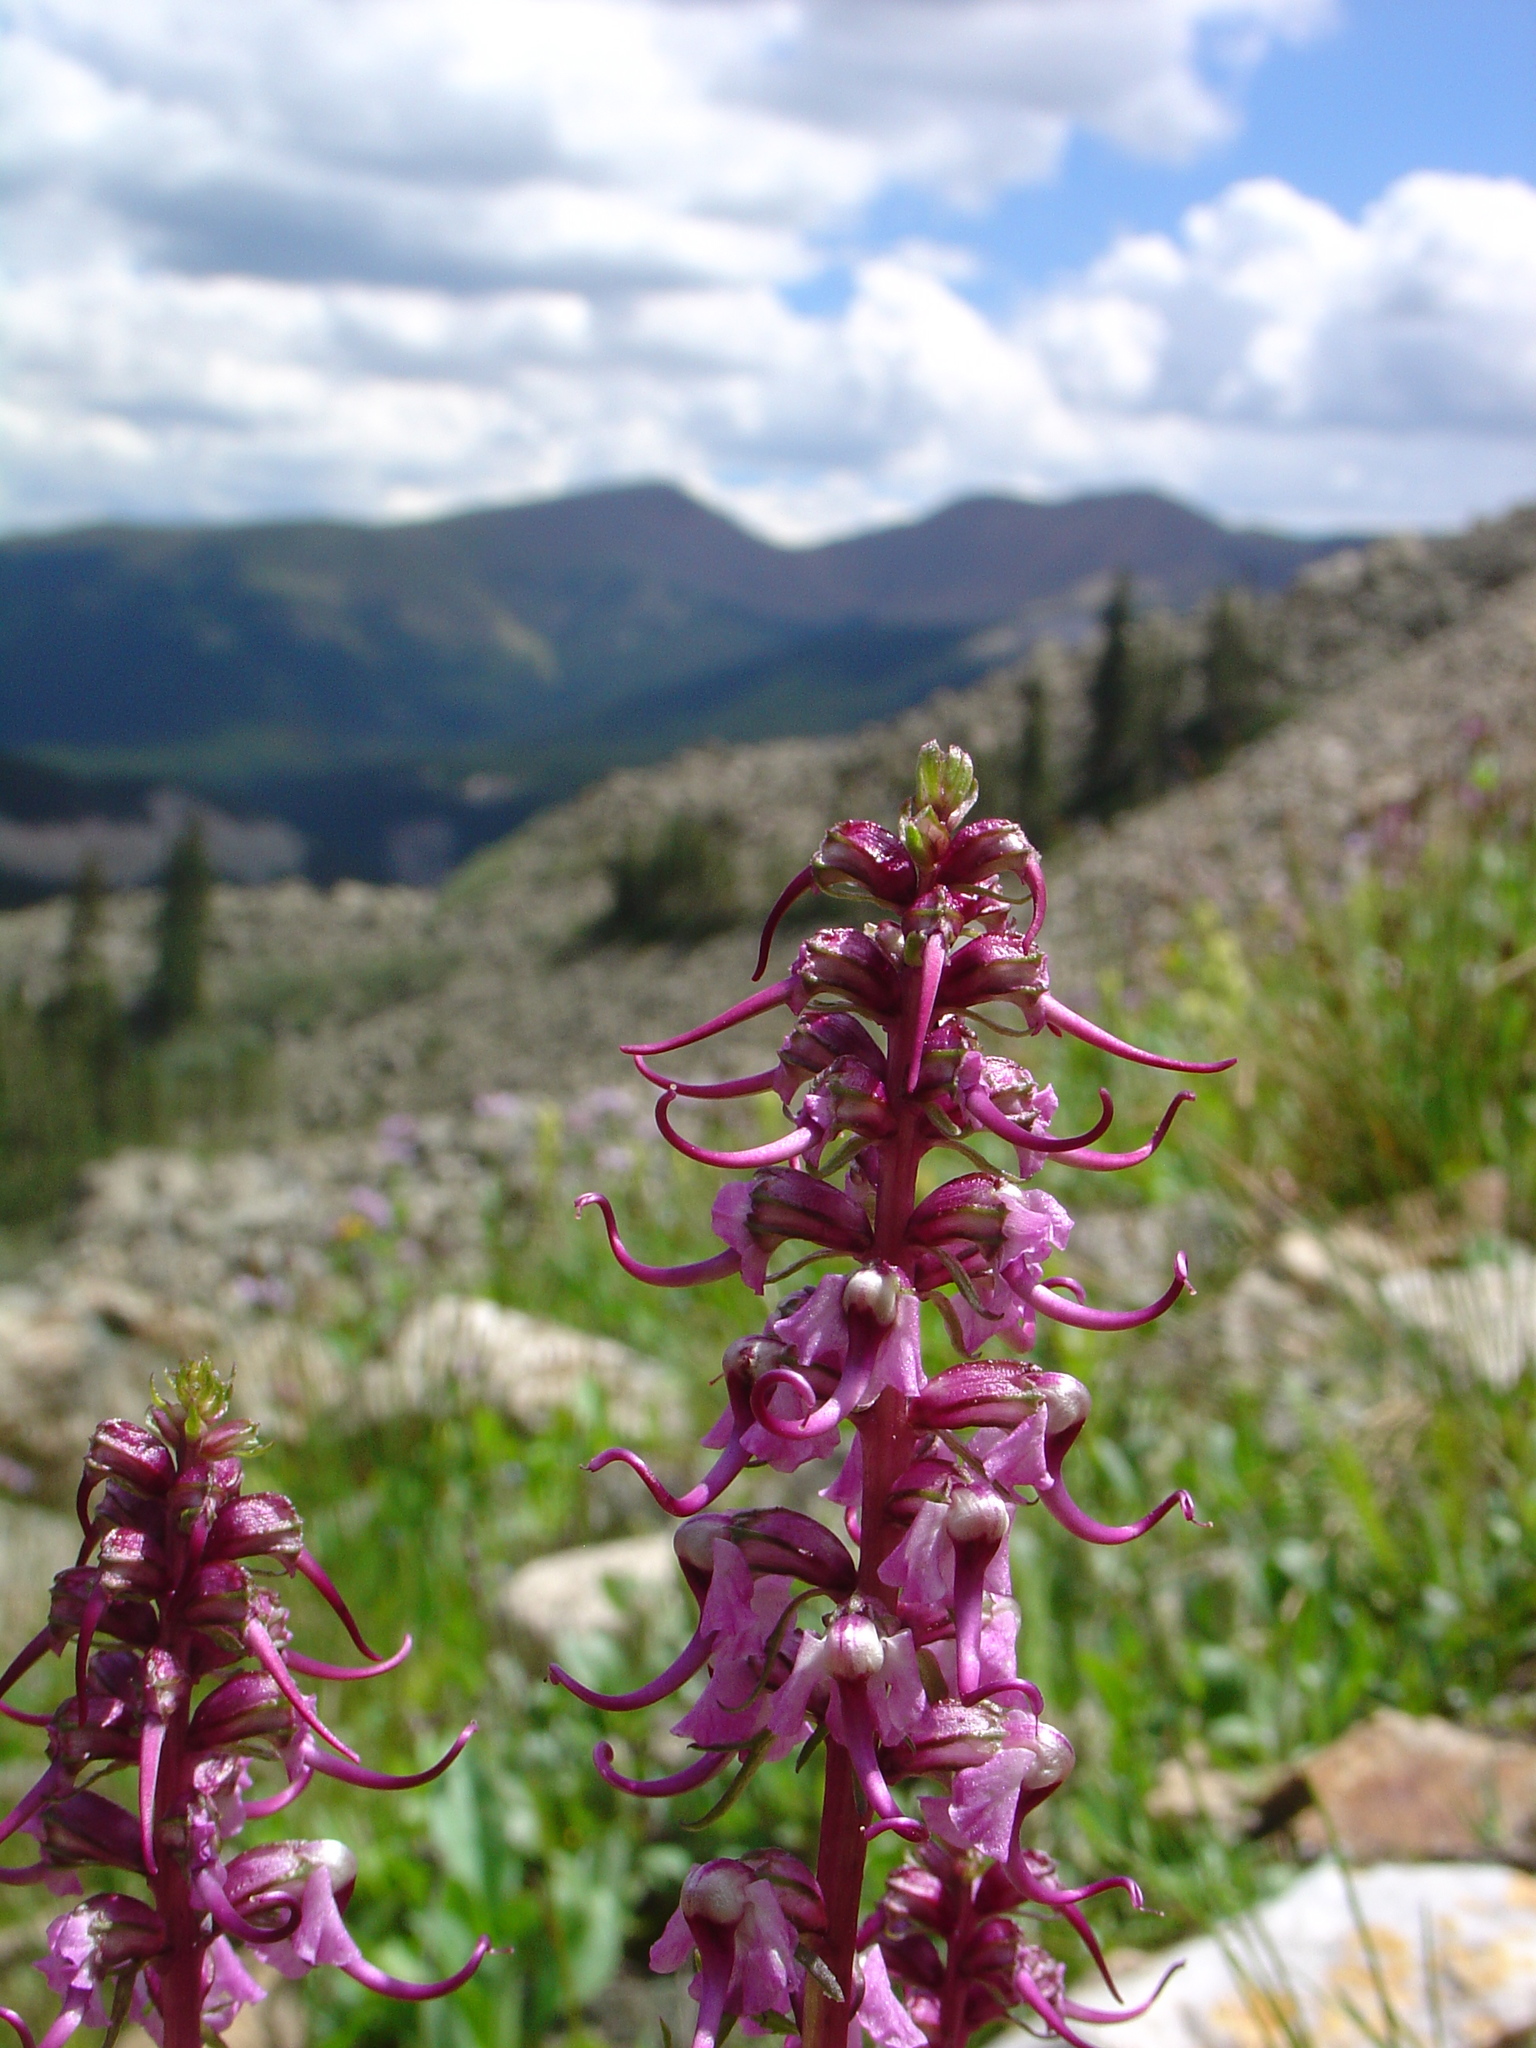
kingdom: Plantae
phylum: Tracheophyta
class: Magnoliopsida
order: Lamiales
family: Orobanchaceae
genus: Pedicularis
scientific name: Pedicularis groenlandica
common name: Elephant's-head
